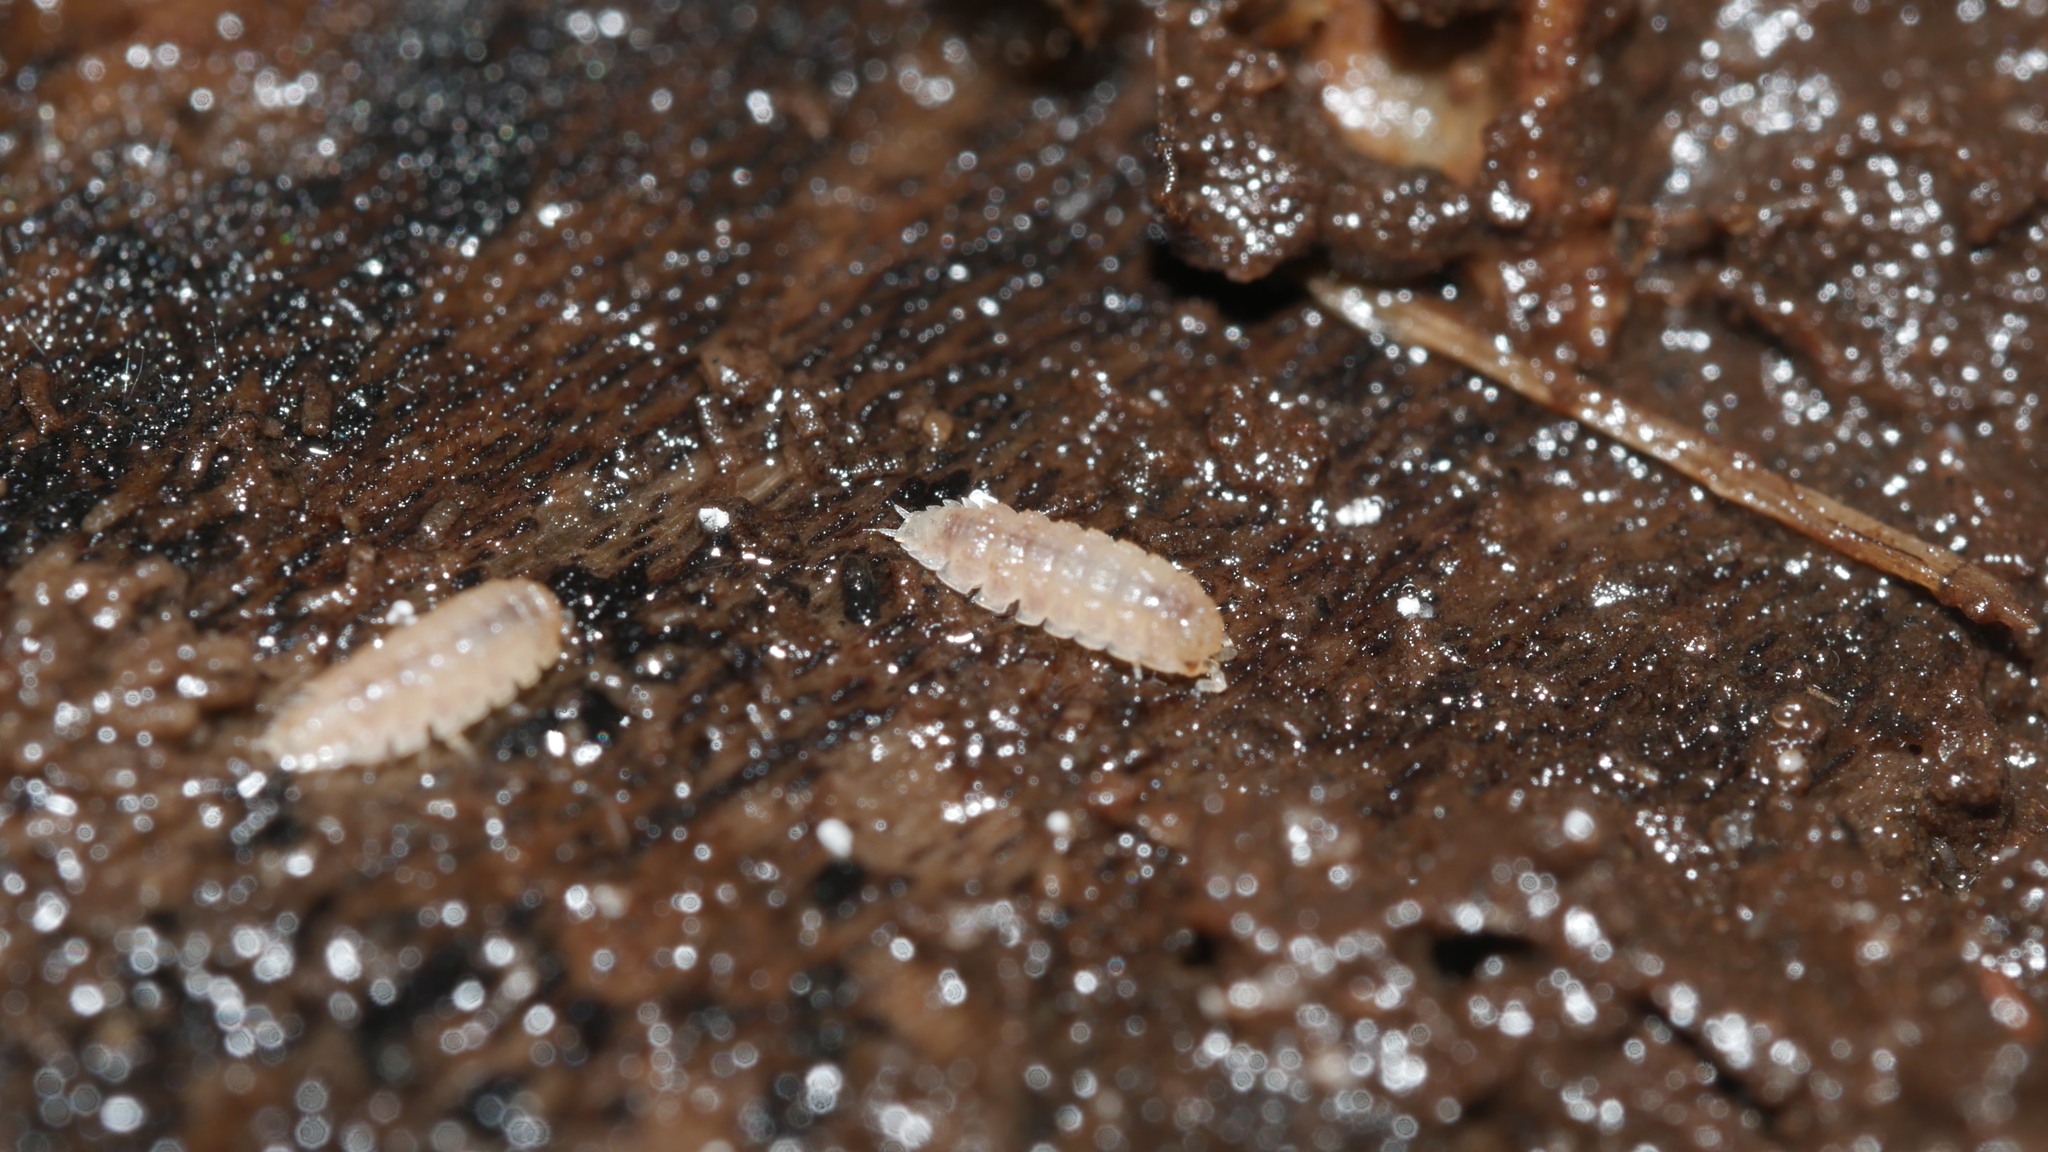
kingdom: Animalia
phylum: Arthropoda
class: Malacostraca
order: Isopoda
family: Trichoniscidae
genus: Haplophthalmus
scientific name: Haplophthalmus danicus
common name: Pillbug
